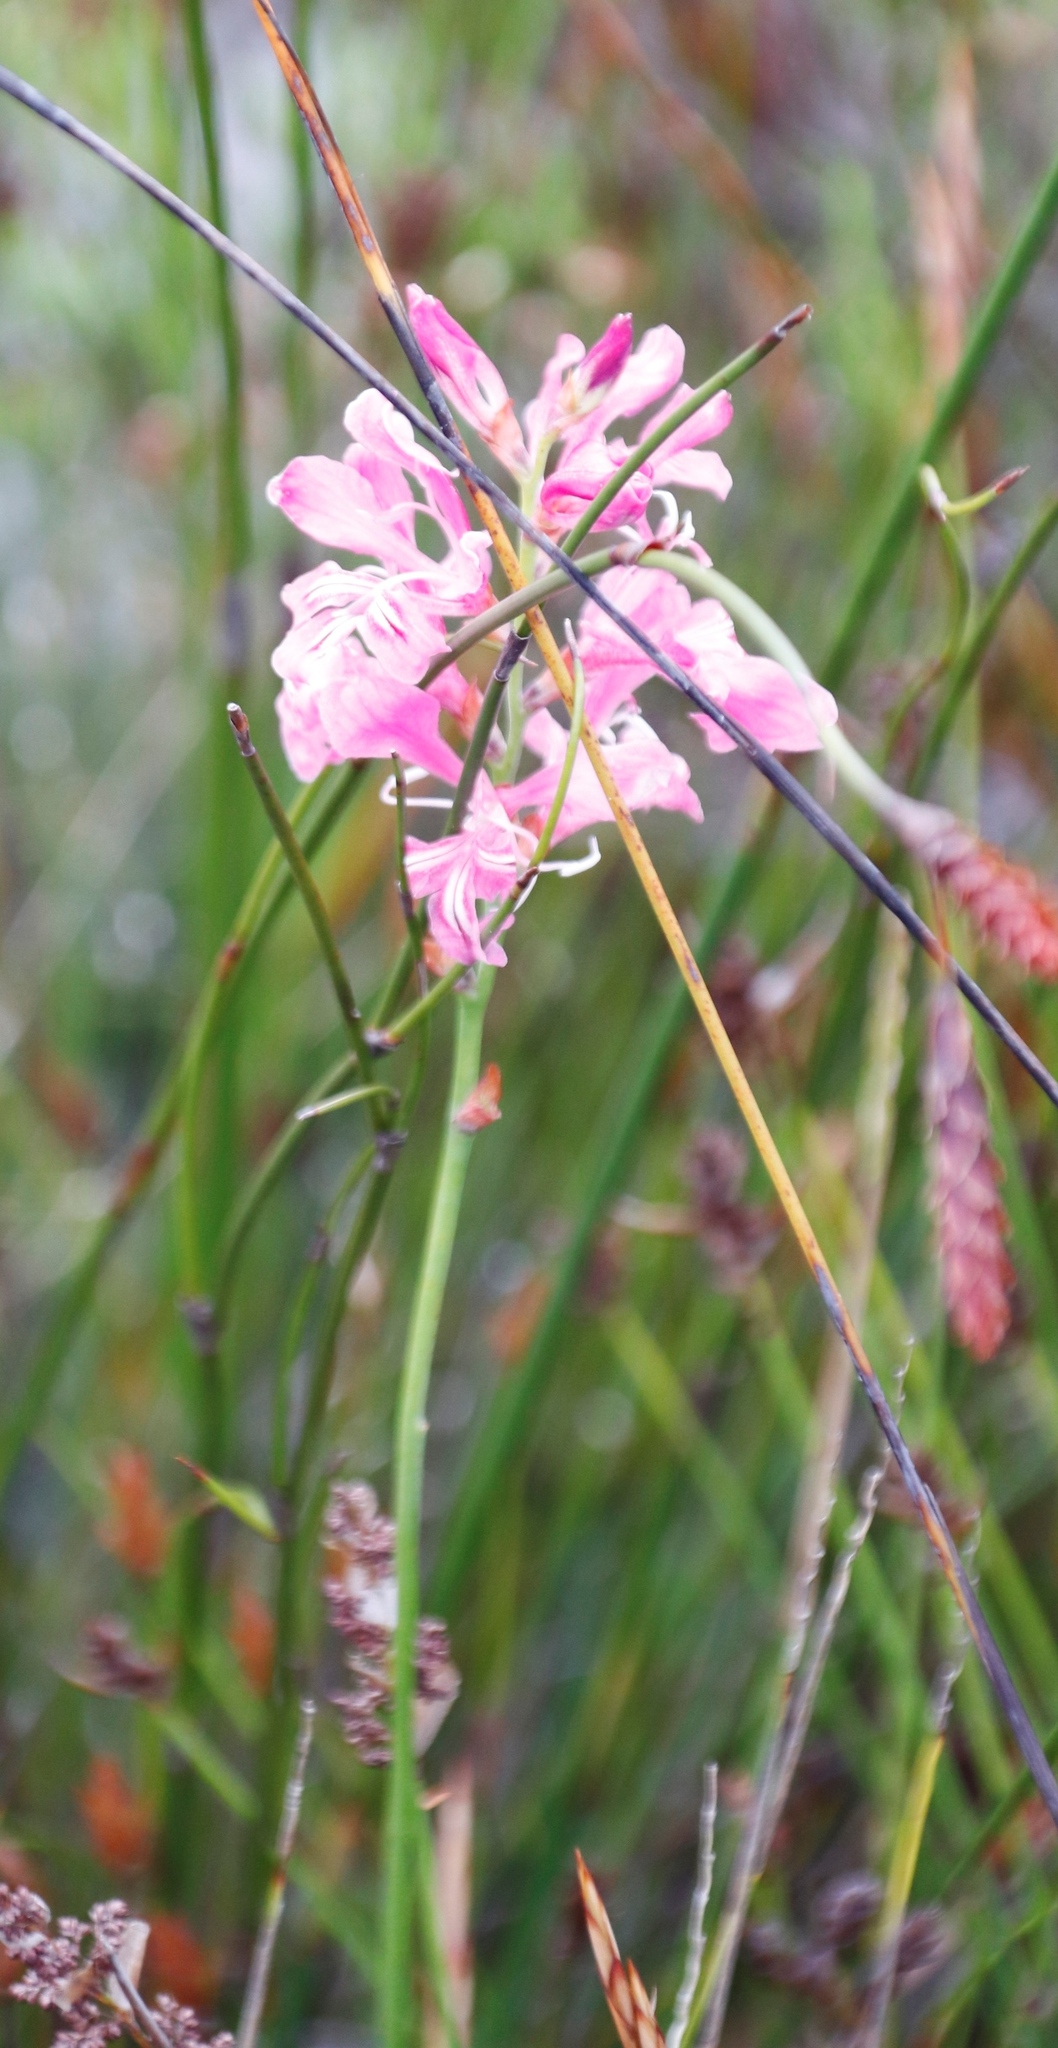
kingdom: Plantae
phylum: Tracheophyta
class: Liliopsida
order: Asparagales
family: Iridaceae
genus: Tritoniopsis
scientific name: Tritoniopsis lata
